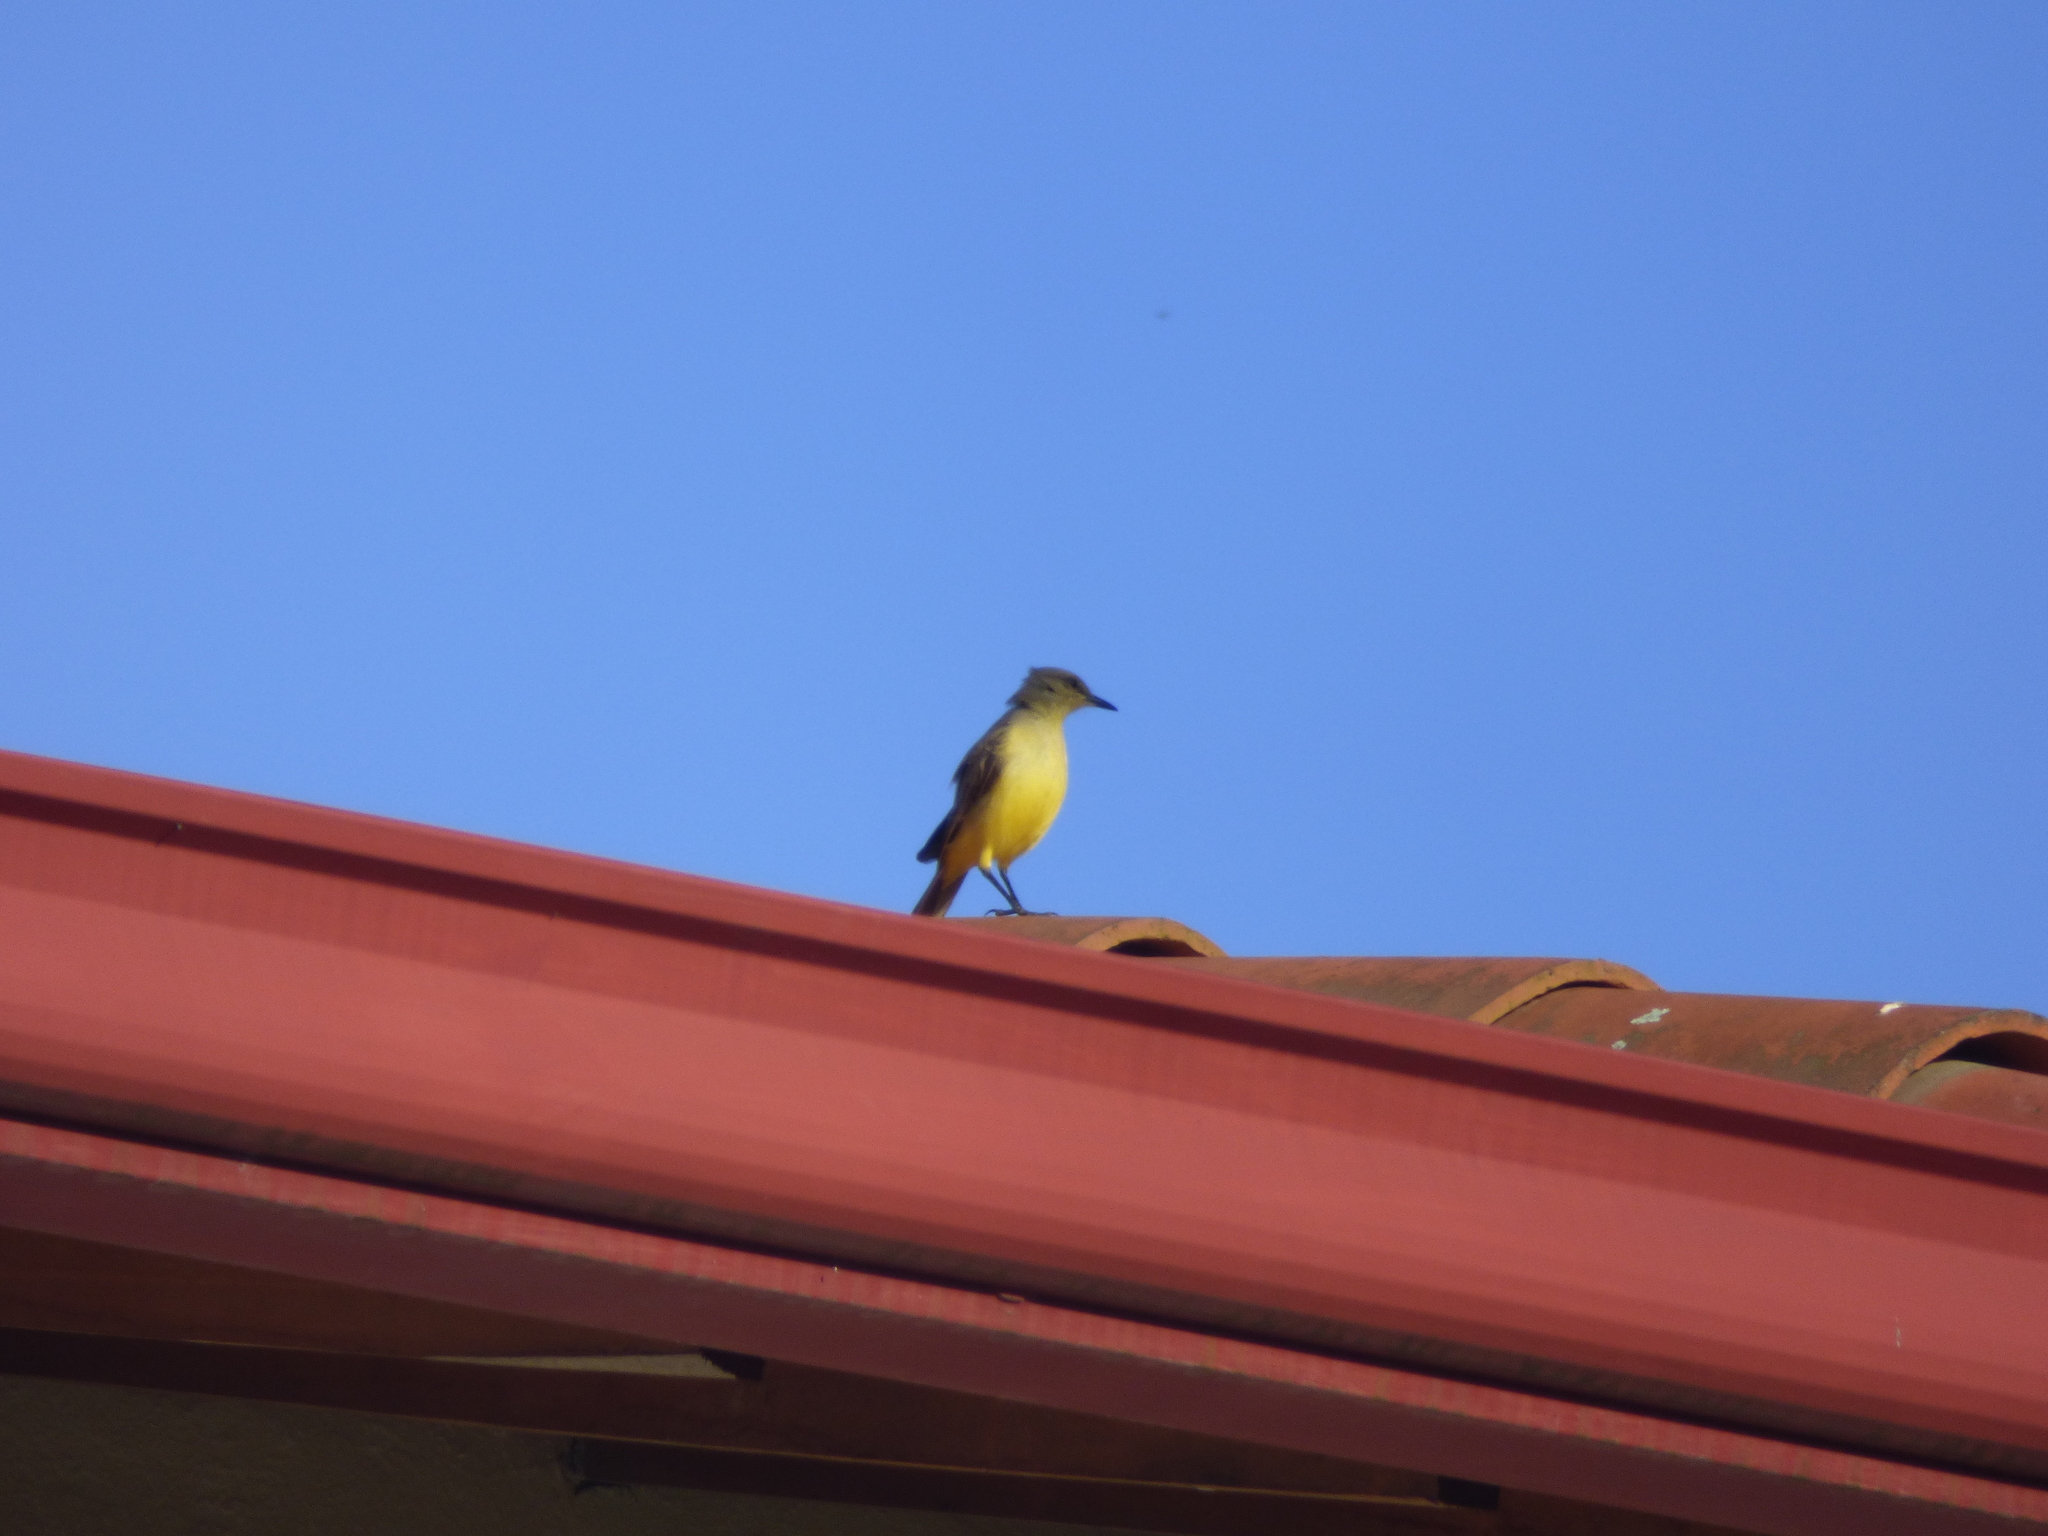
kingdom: Animalia
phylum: Chordata
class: Aves
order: Passeriformes
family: Tyrannidae
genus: Machetornis
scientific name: Machetornis rixosa
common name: Cattle tyrant
